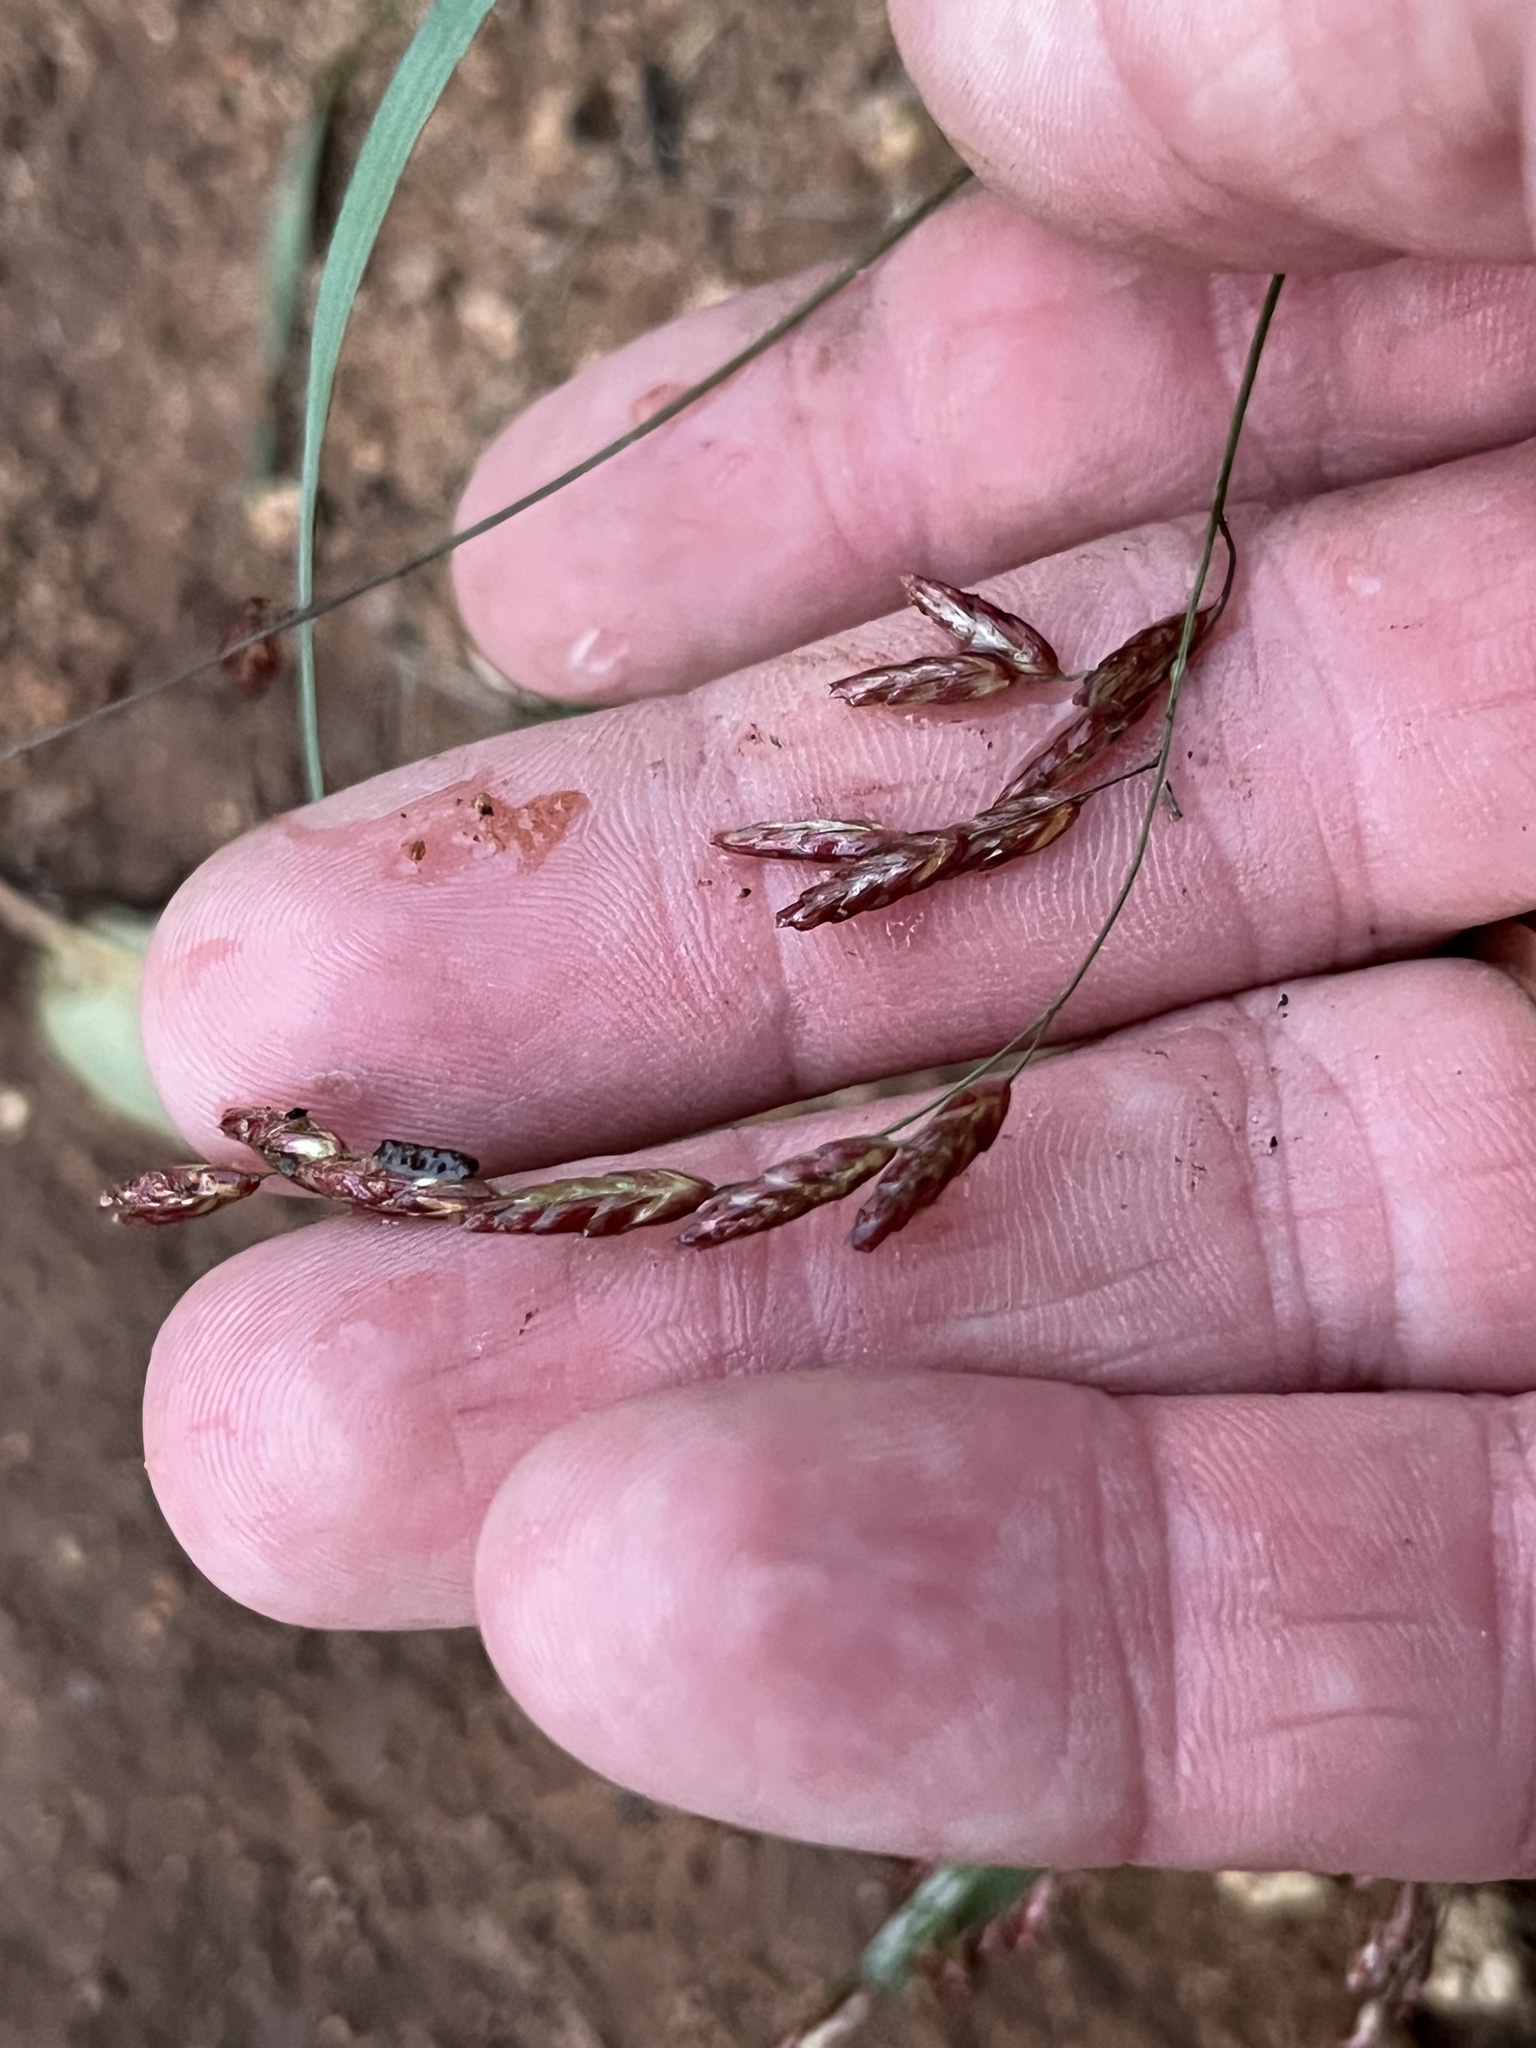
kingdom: Plantae
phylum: Tracheophyta
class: Liliopsida
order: Poales
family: Poaceae
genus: Tridens
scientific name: Tridens texanus
